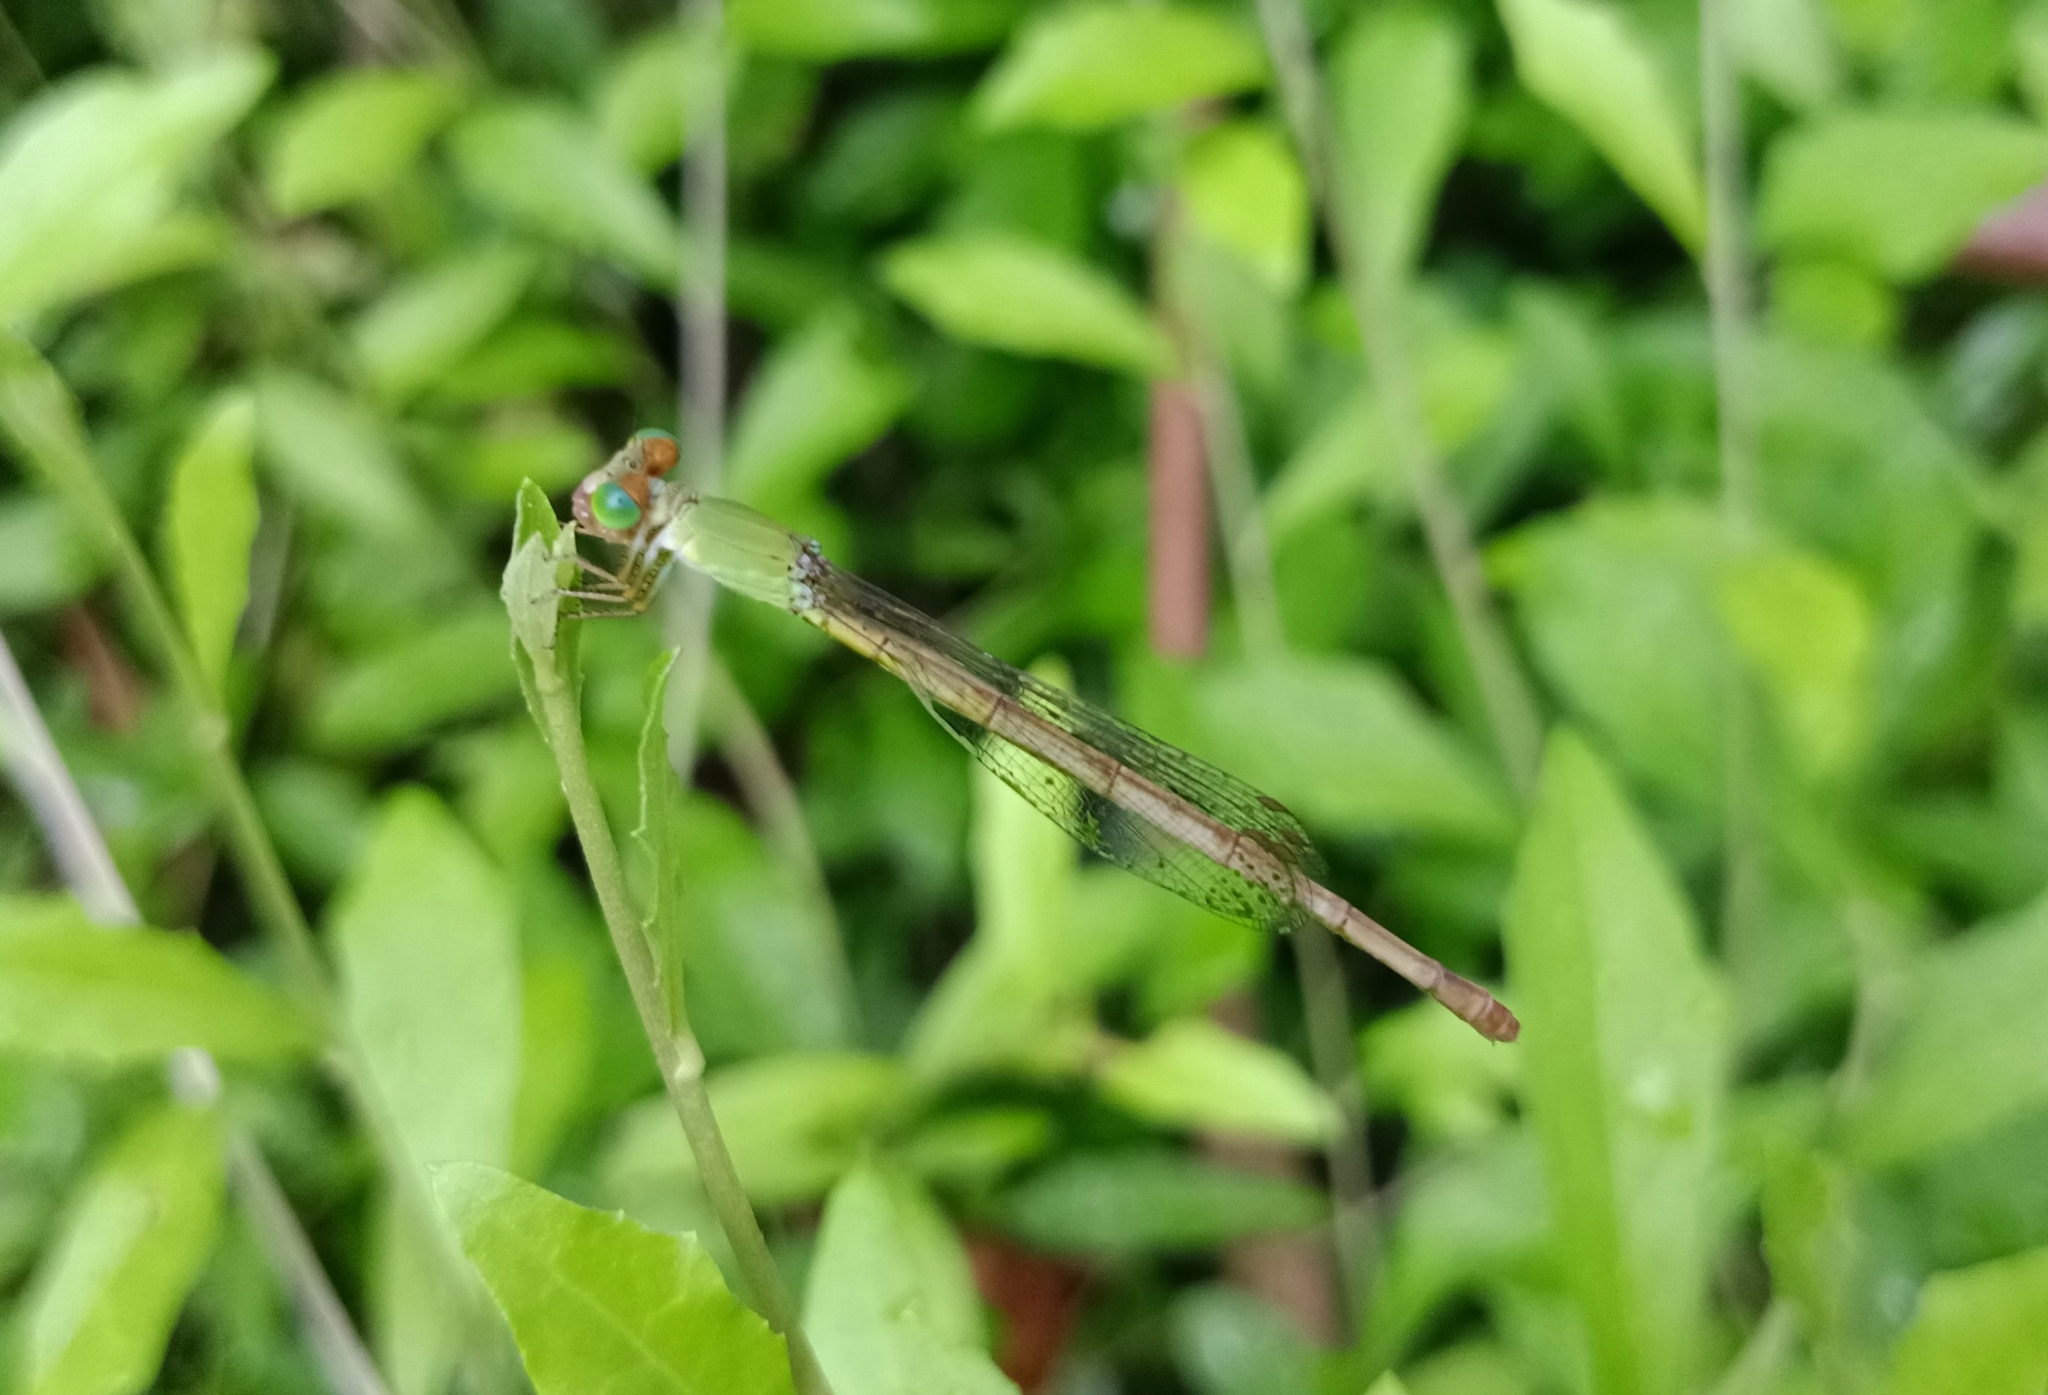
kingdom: Animalia
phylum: Arthropoda
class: Insecta
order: Odonata
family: Coenagrionidae
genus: Ceriagrion
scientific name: Ceriagrion coromandelianum
